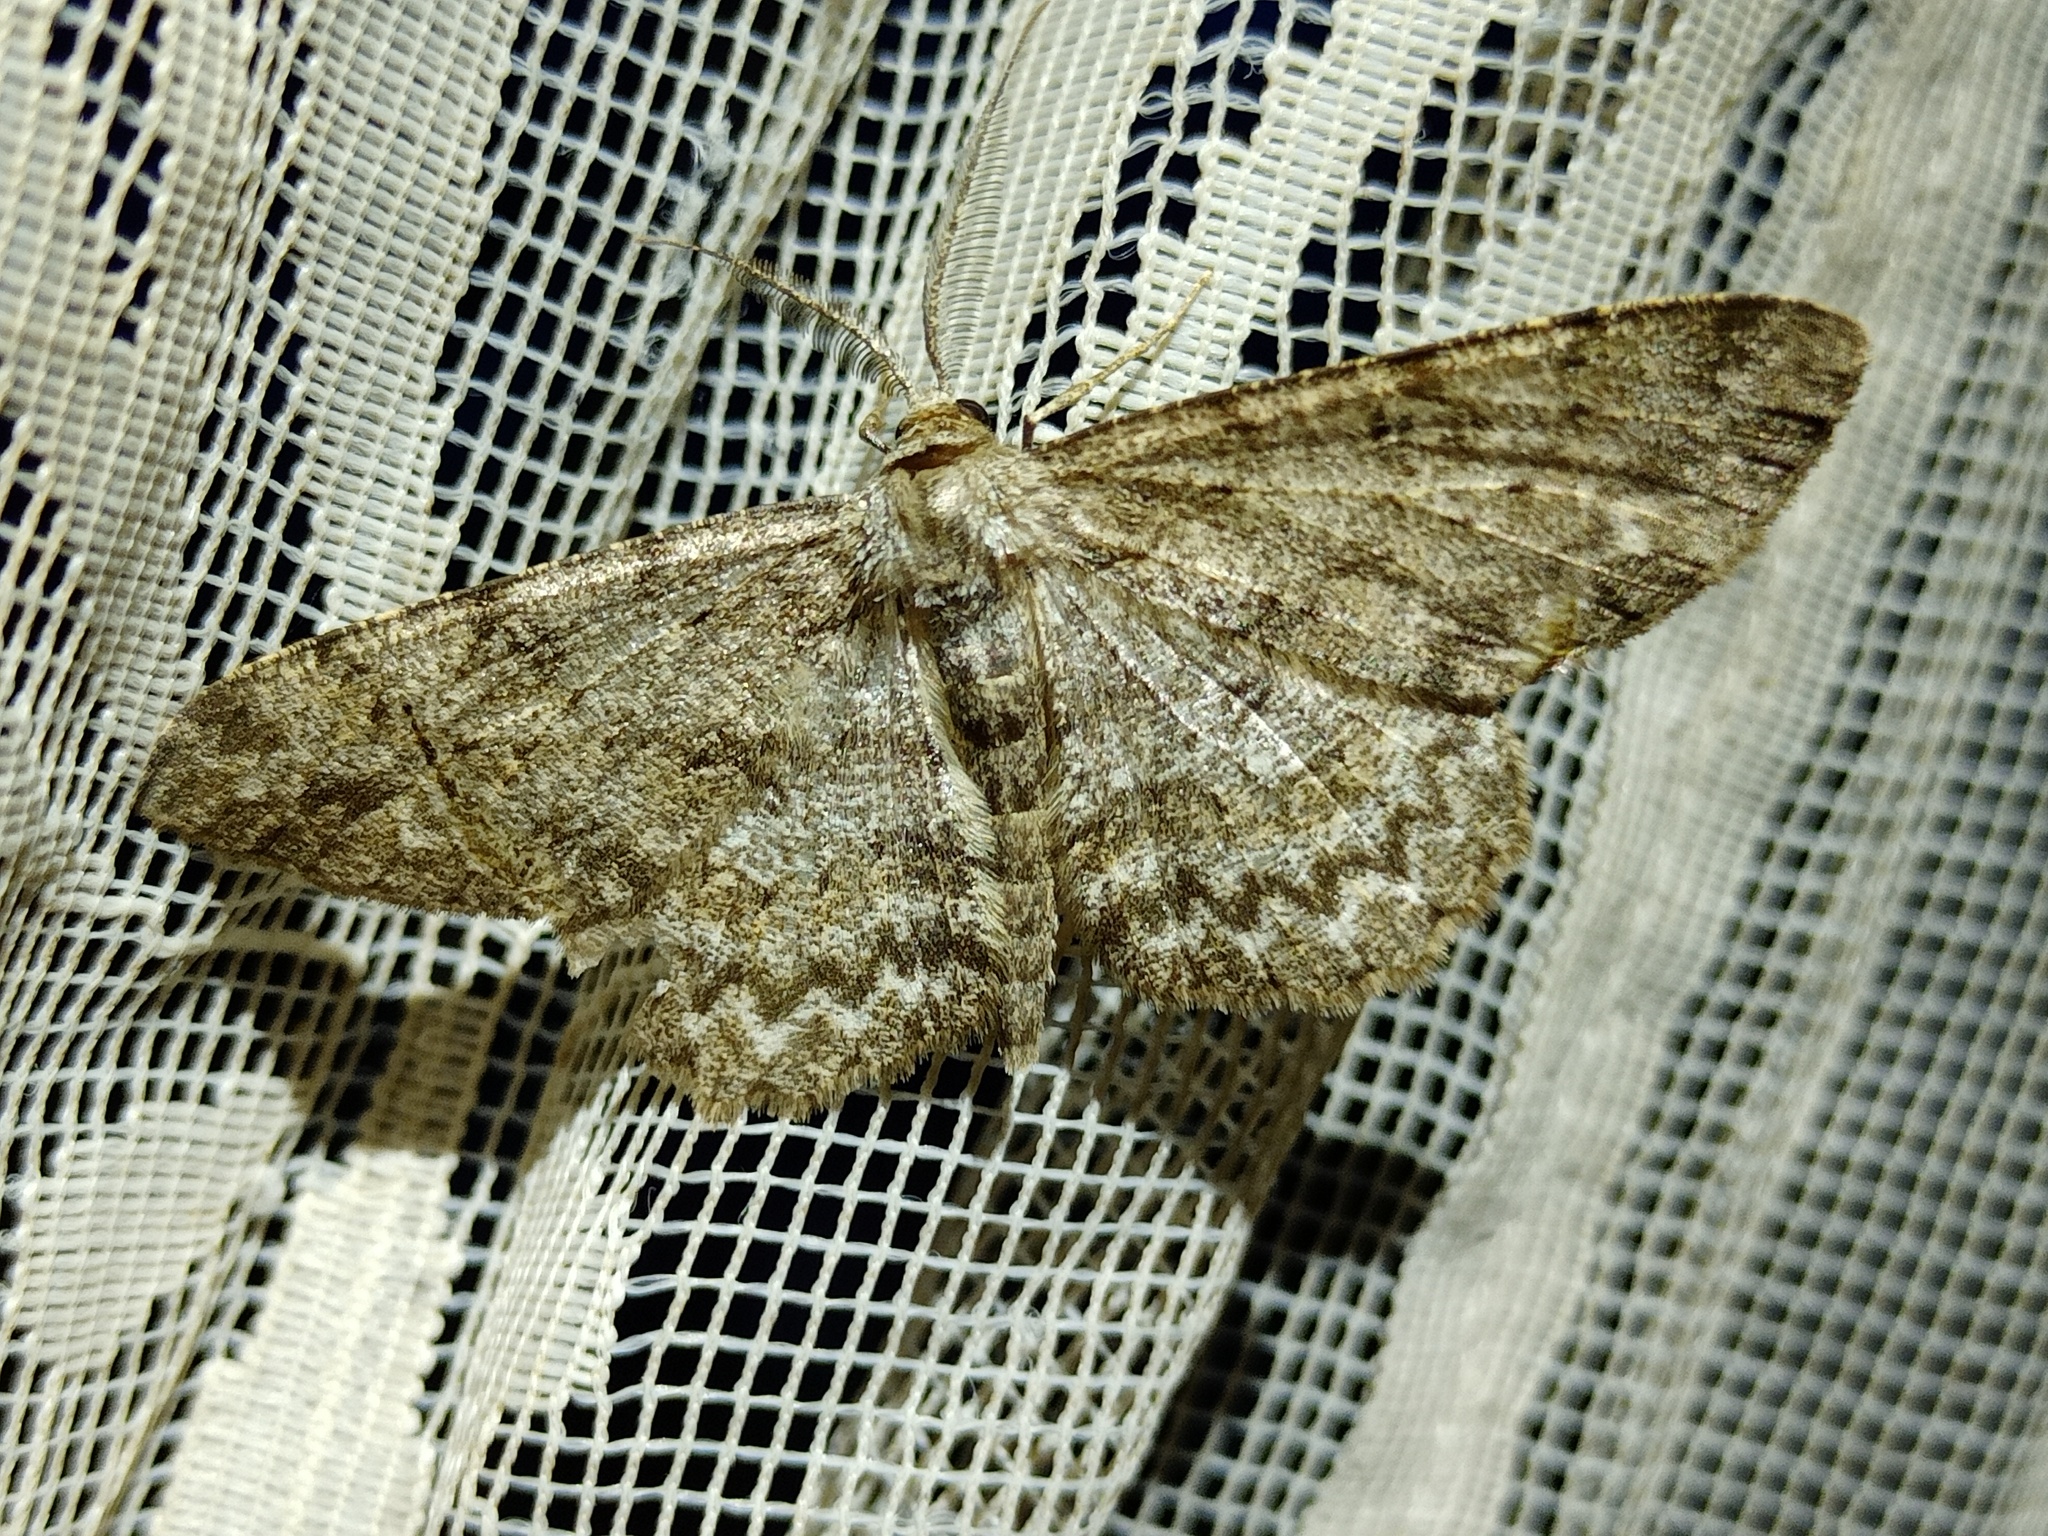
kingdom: Animalia
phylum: Arthropoda
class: Insecta
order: Lepidoptera
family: Geometridae
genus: Hypomecis
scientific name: Hypomecis punctinalis
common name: Pale oak beauty
